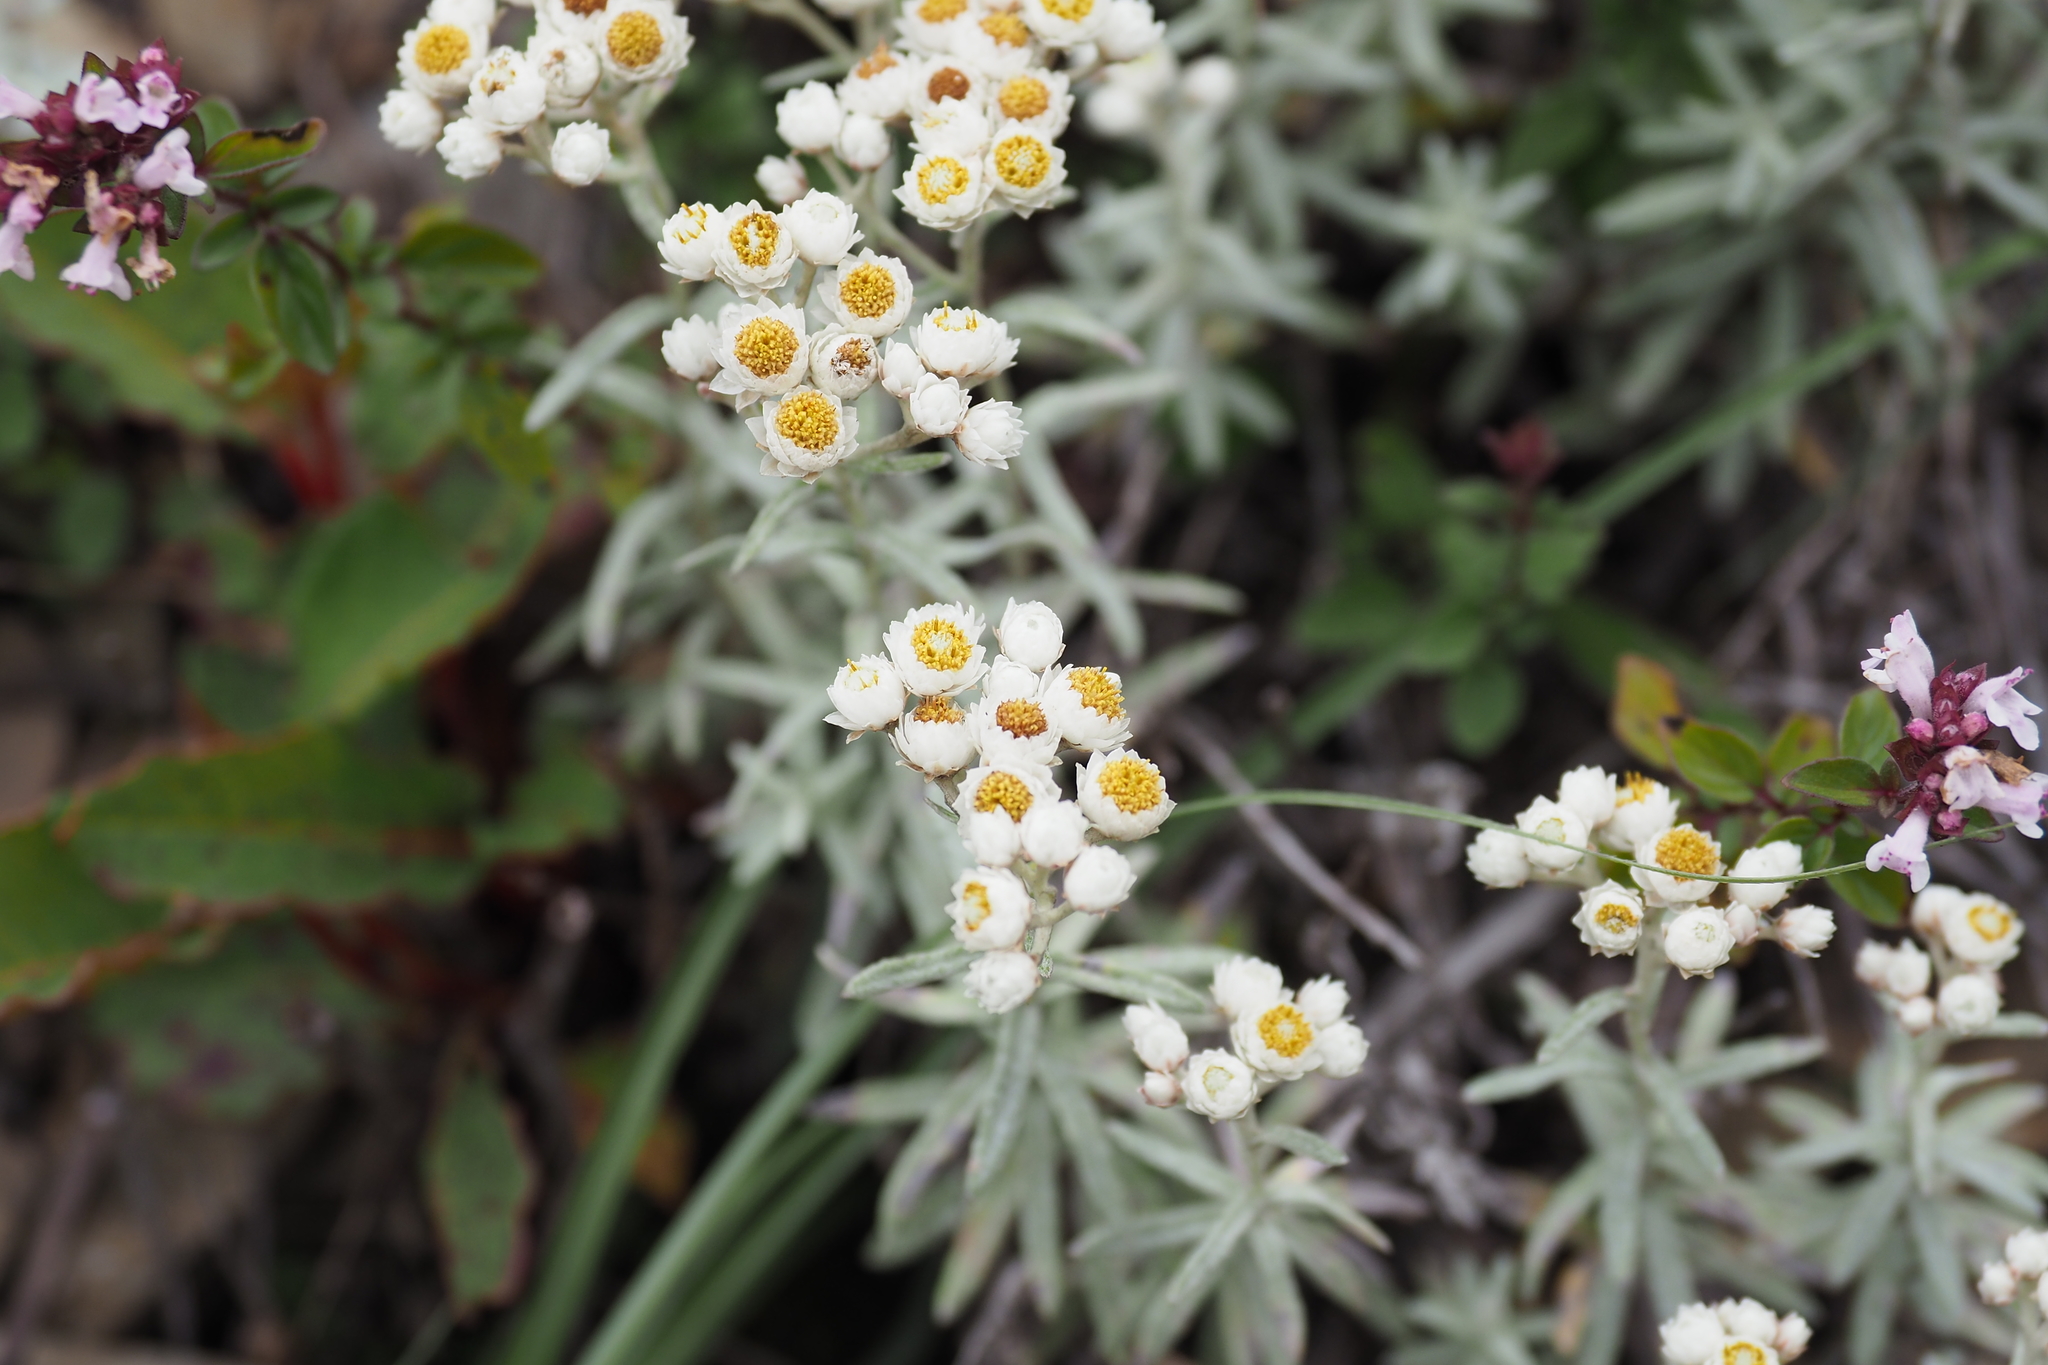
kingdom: Plantae
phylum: Tracheophyta
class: Magnoliopsida
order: Asterales
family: Asteraceae
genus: Anaphalis
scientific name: Anaphalis morrisonicola
